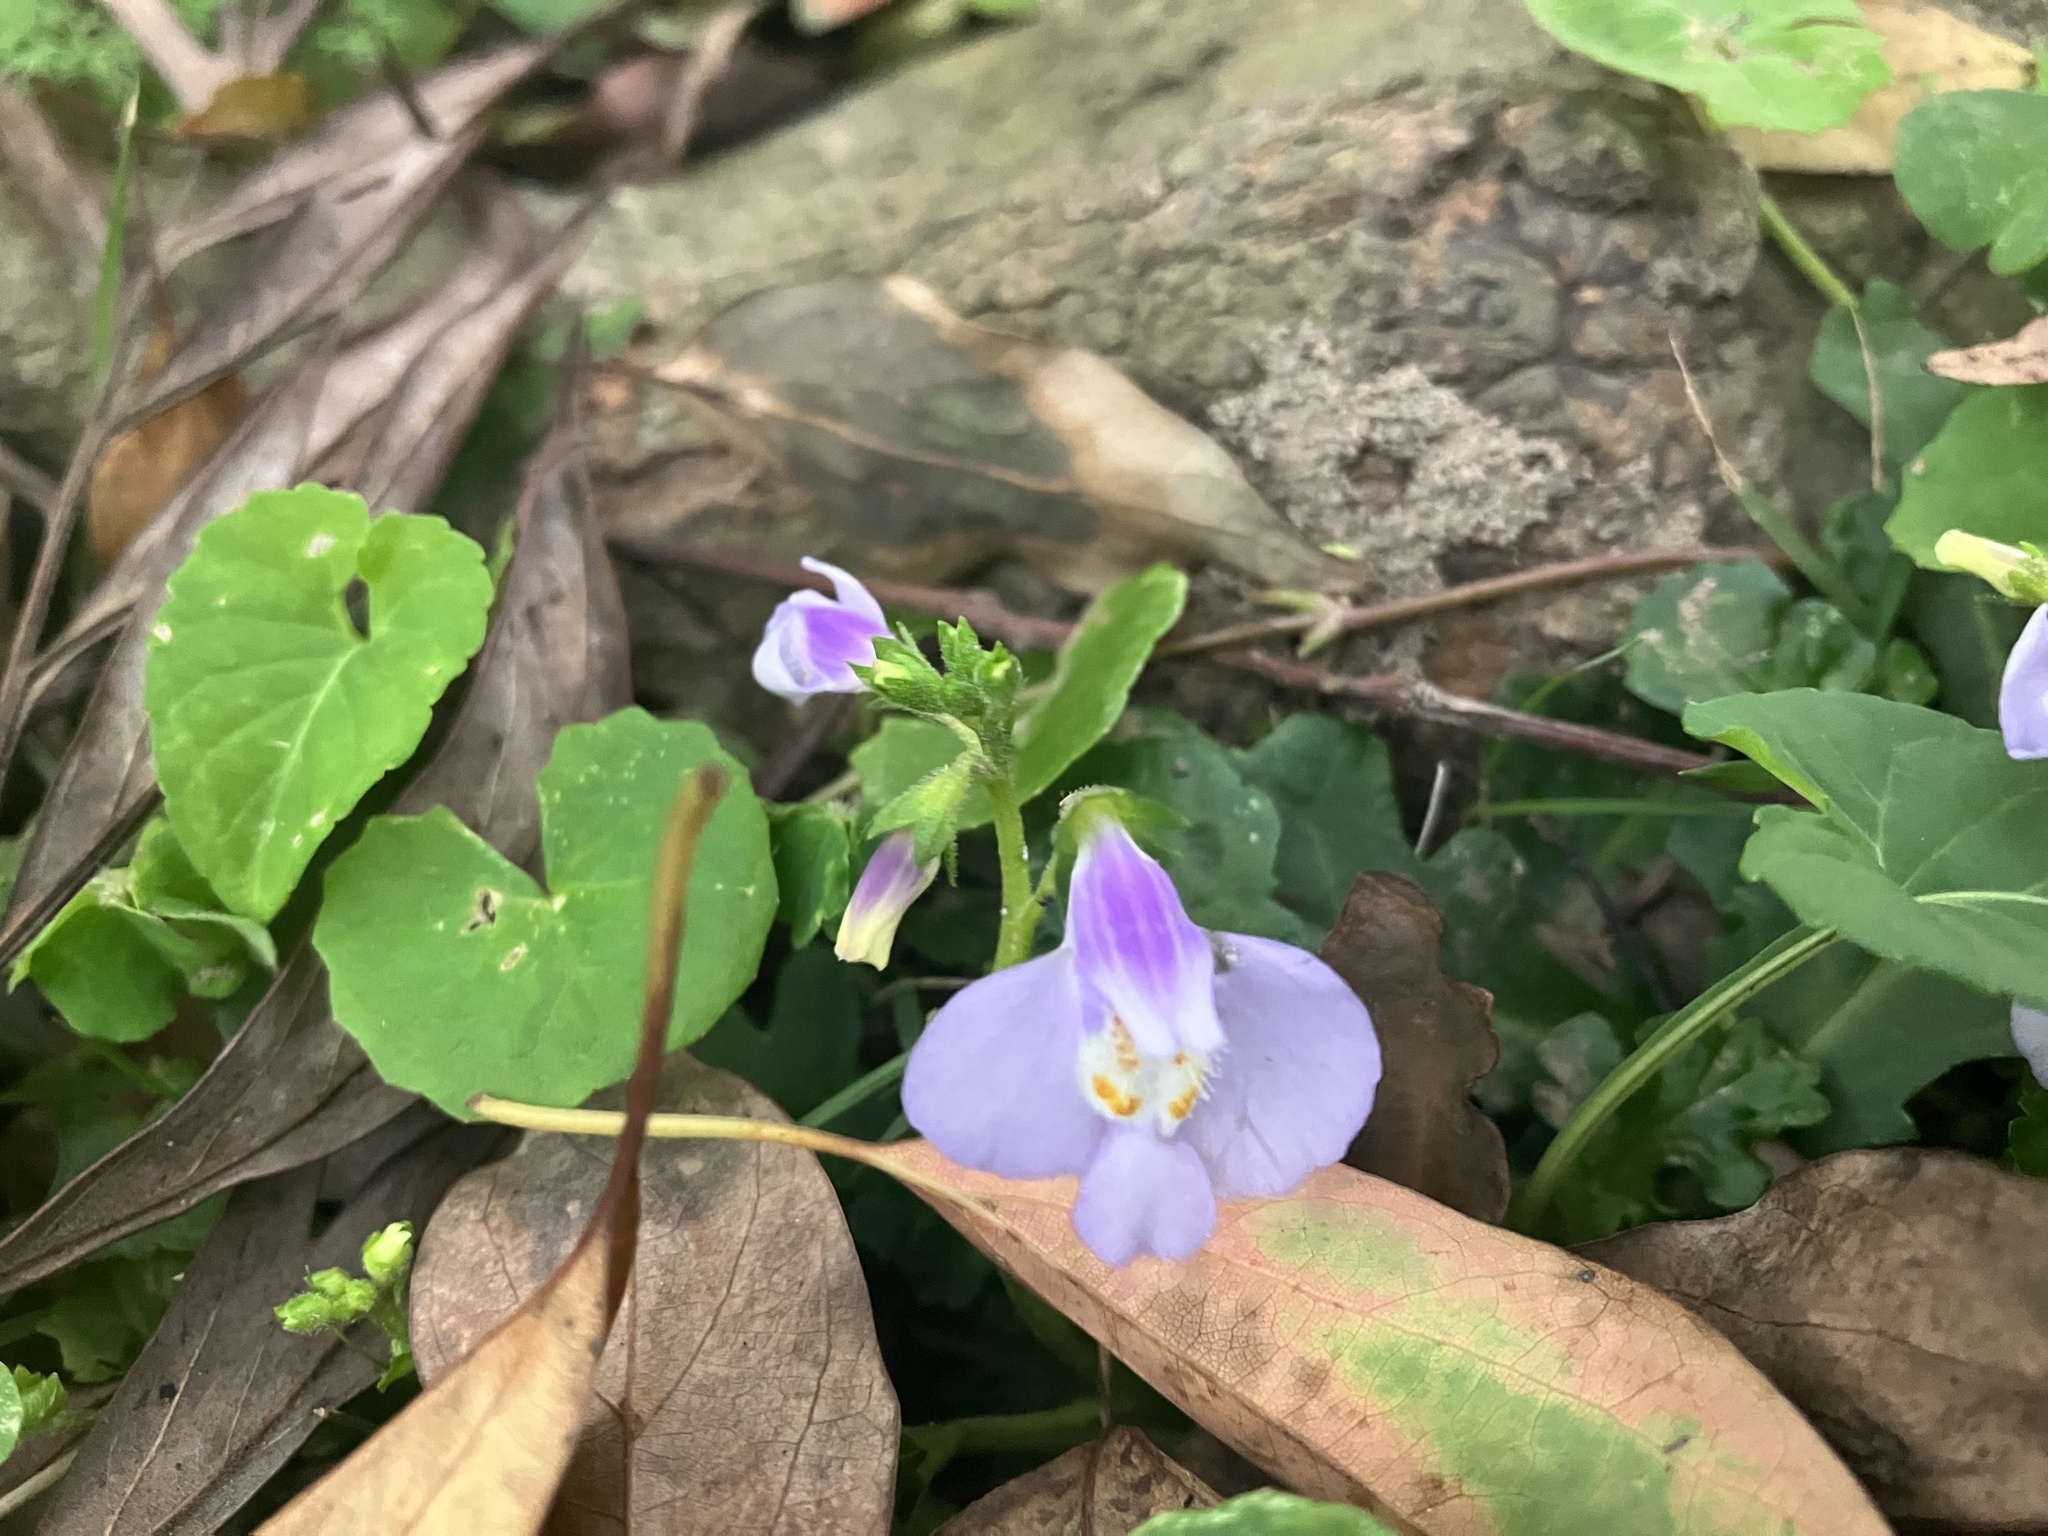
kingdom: Plantae
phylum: Tracheophyta
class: Magnoliopsida
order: Lamiales
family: Mazaceae
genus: Mazus
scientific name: Mazus fauriei
